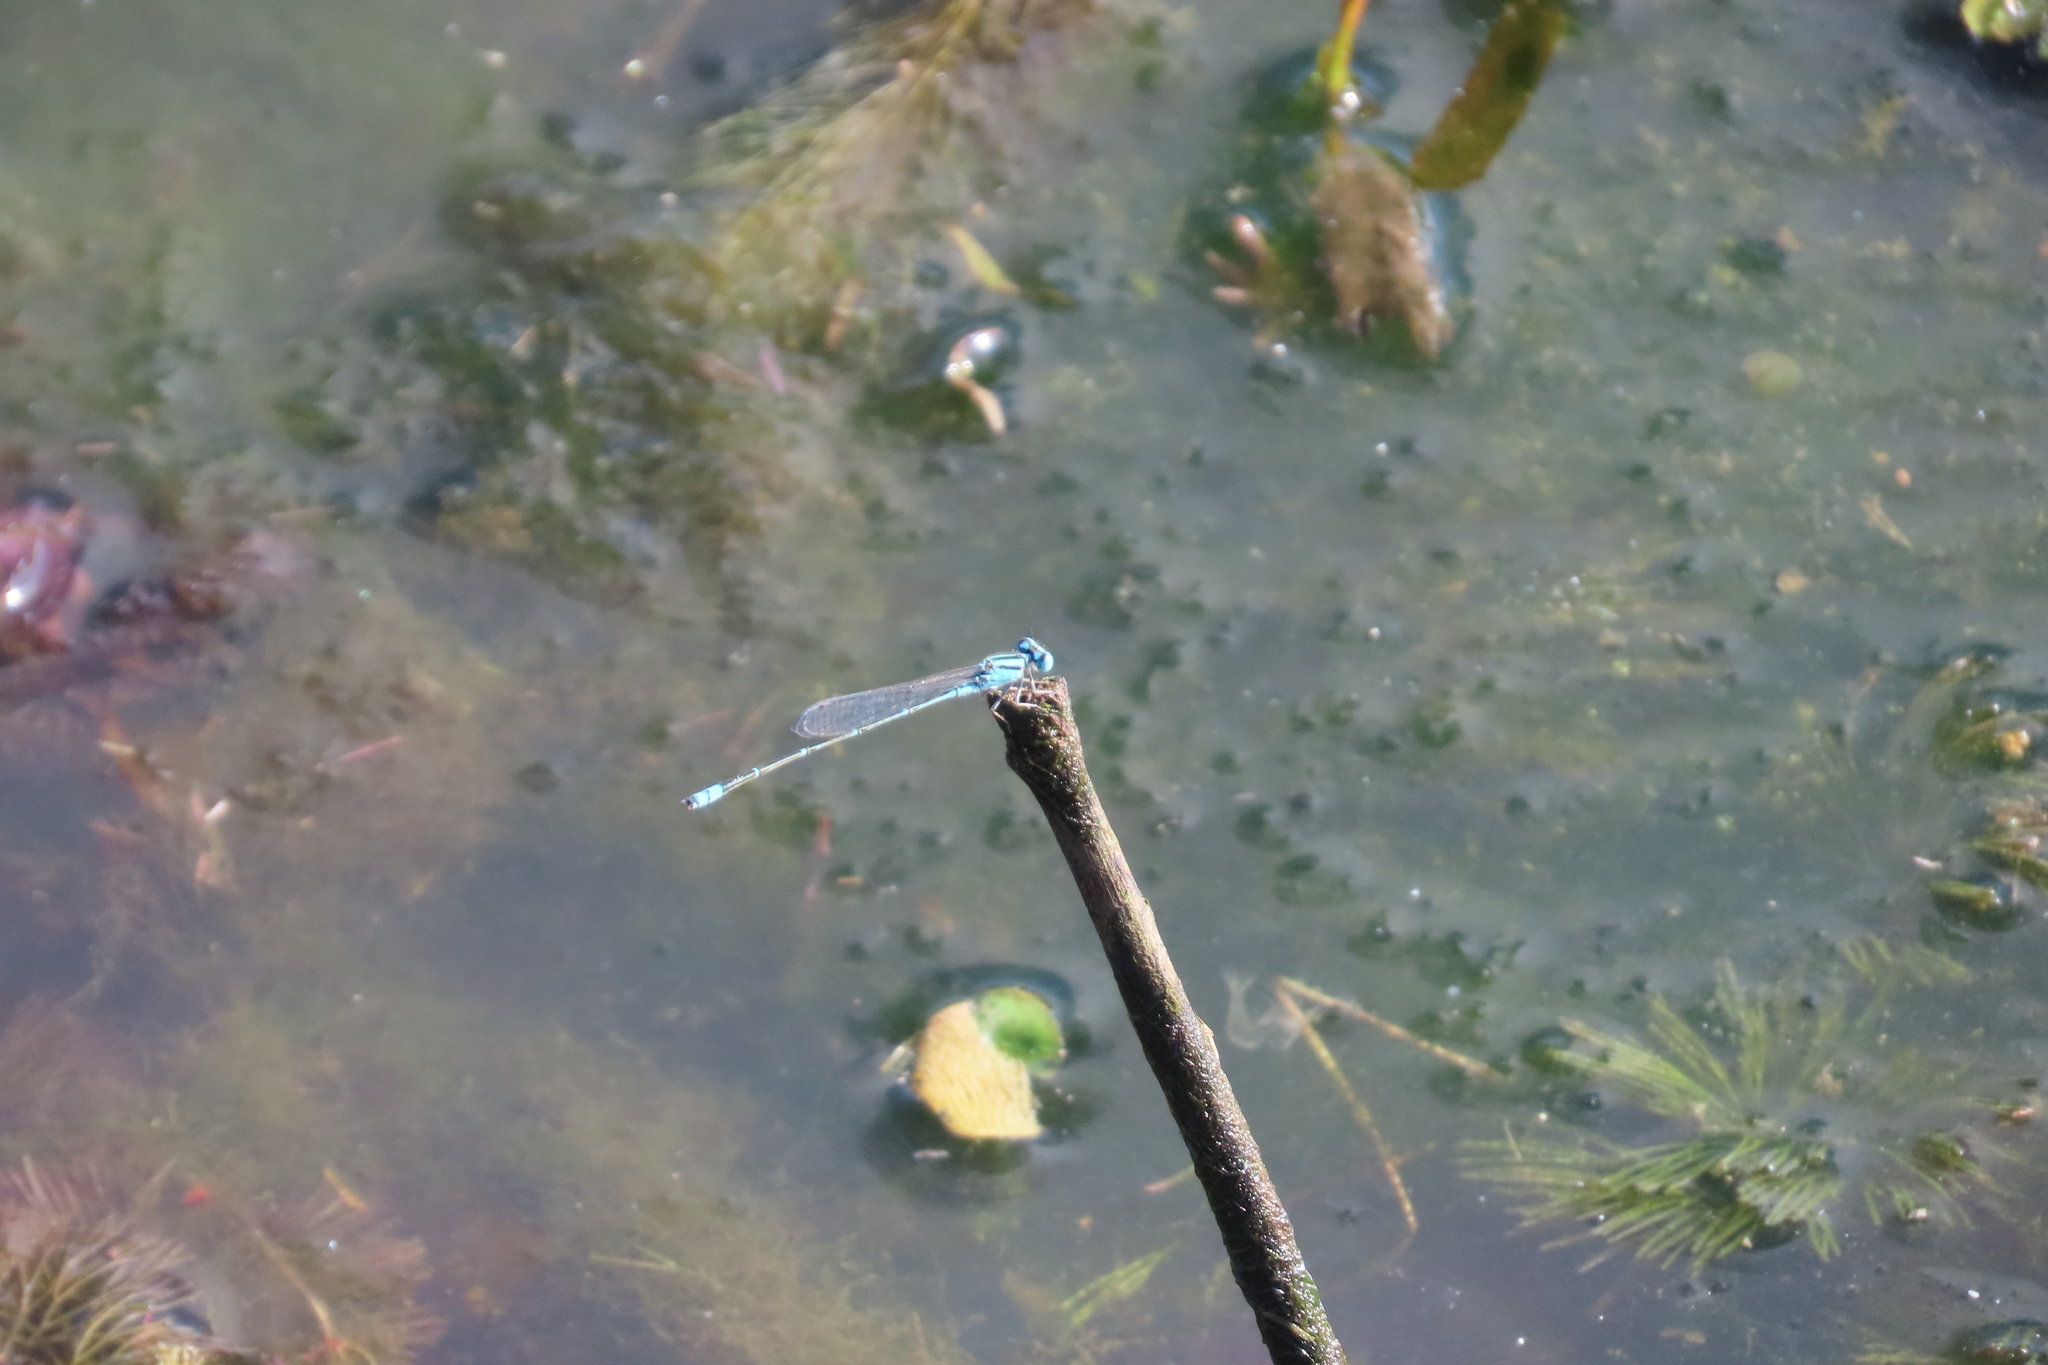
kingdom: Animalia
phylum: Arthropoda
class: Insecta
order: Odonata
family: Coenagrionidae
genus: Pseudagrion
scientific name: Pseudagrion microcephalum
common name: Blue riverdamsel
